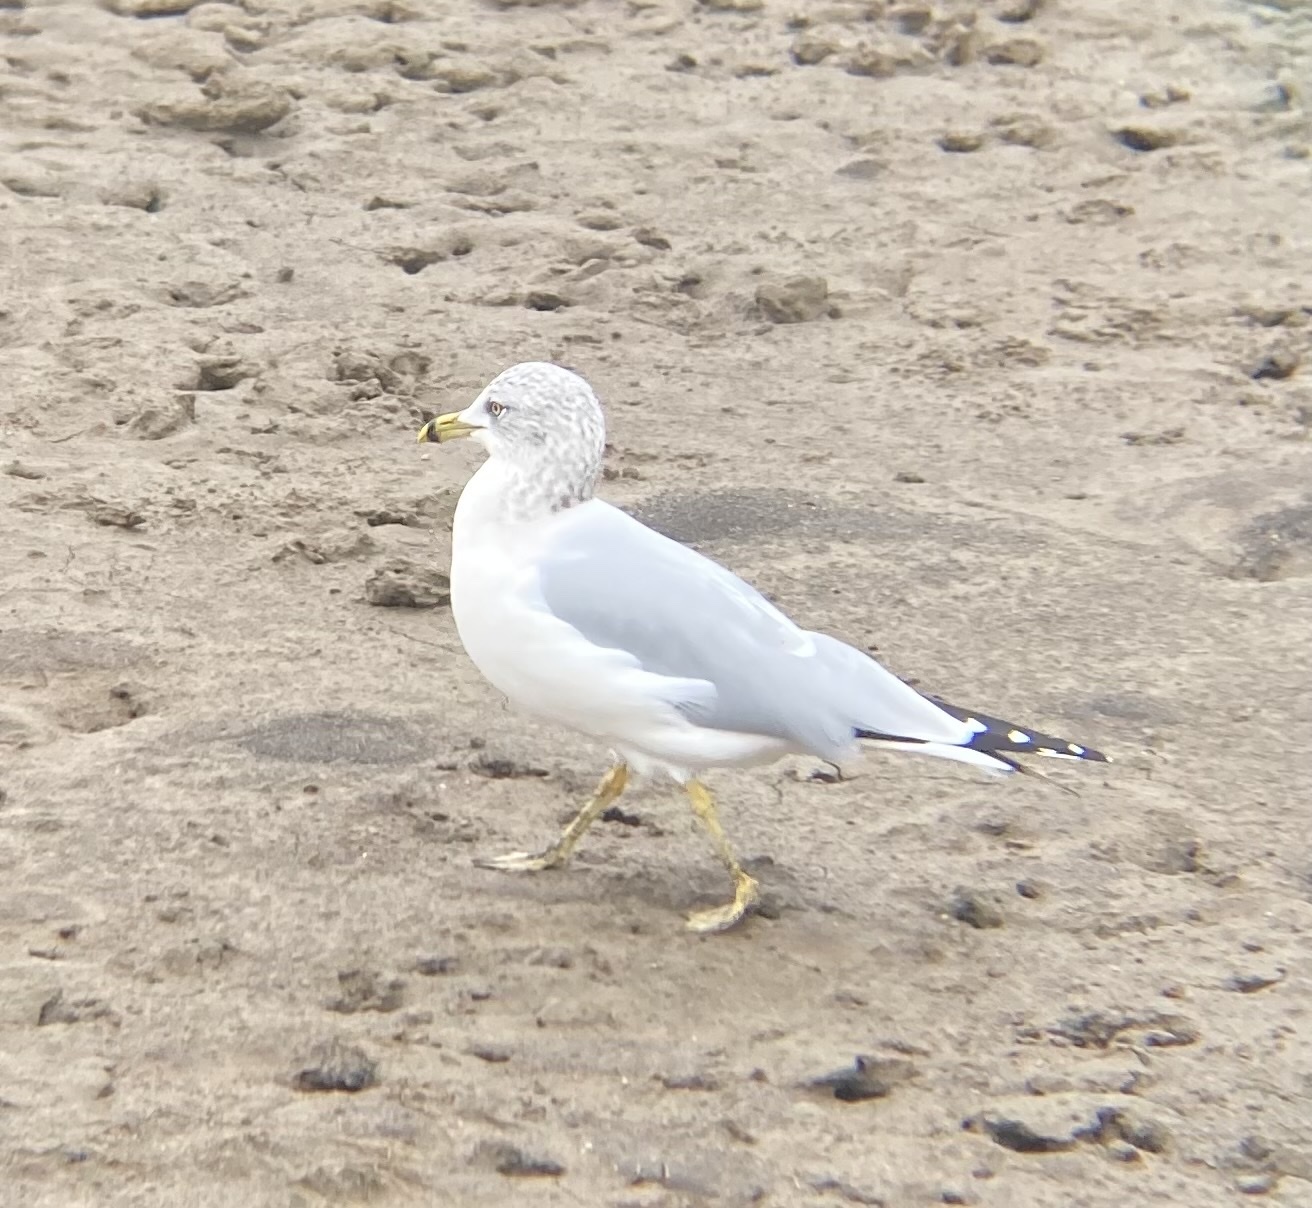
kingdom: Animalia
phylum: Chordata
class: Aves
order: Charadriiformes
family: Laridae
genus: Larus
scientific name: Larus delawarensis
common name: Ring-billed gull
